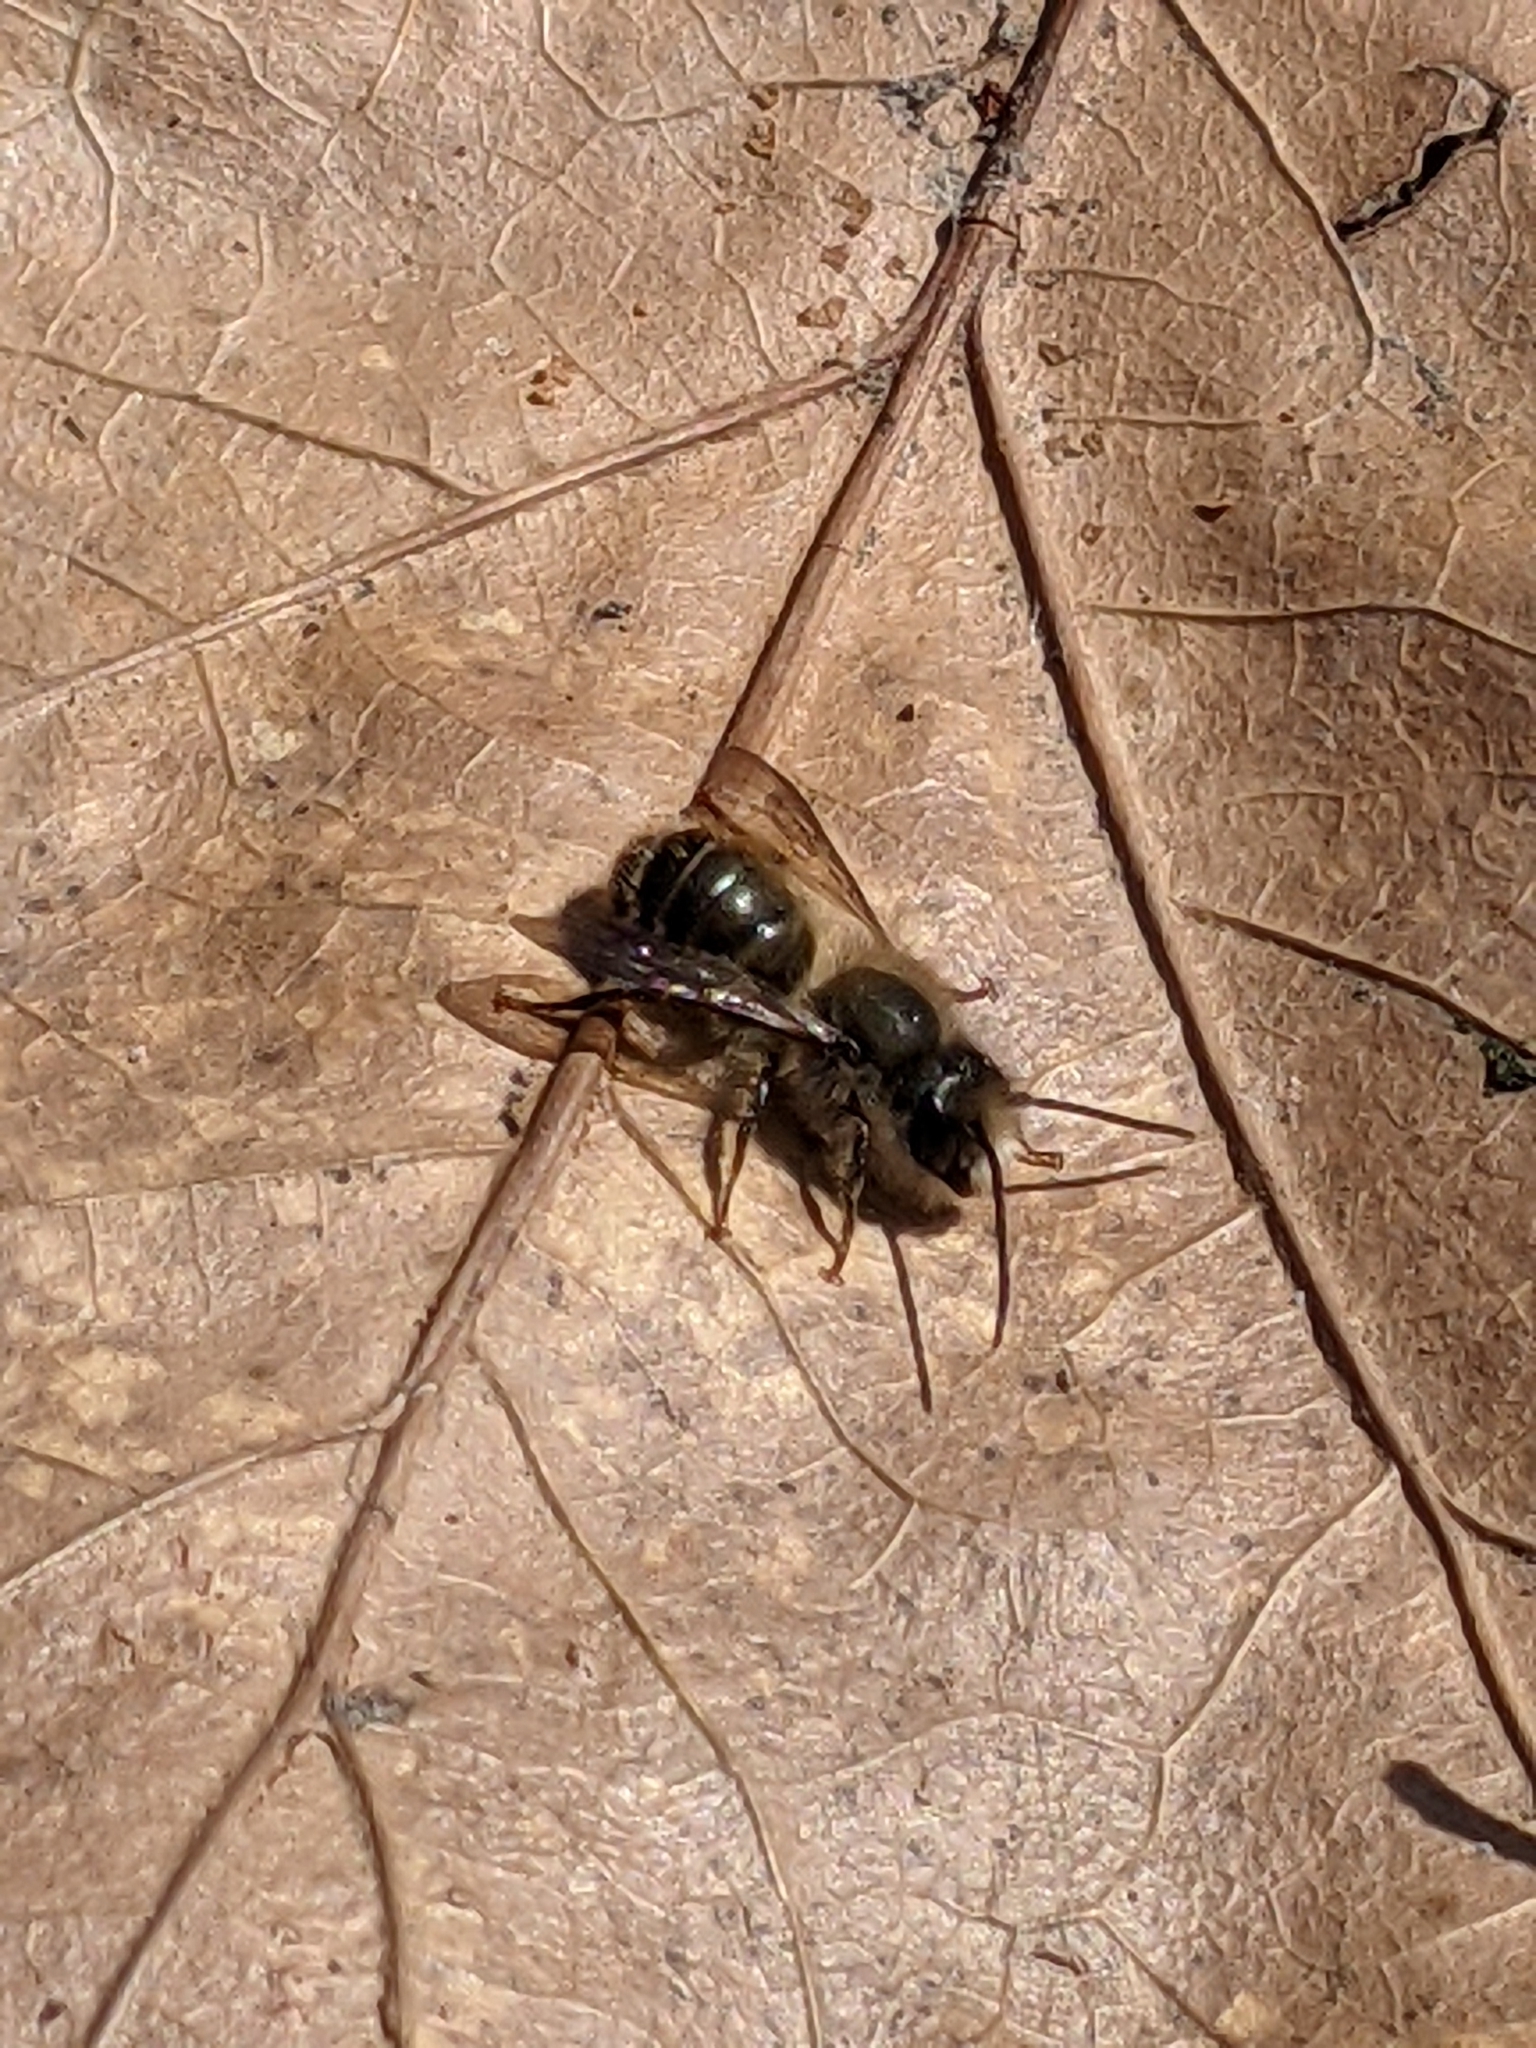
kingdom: Animalia
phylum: Arthropoda
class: Insecta
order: Hymenoptera
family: Megachilidae
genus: Osmia
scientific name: Osmia cornifrons
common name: Horn-faced bee
